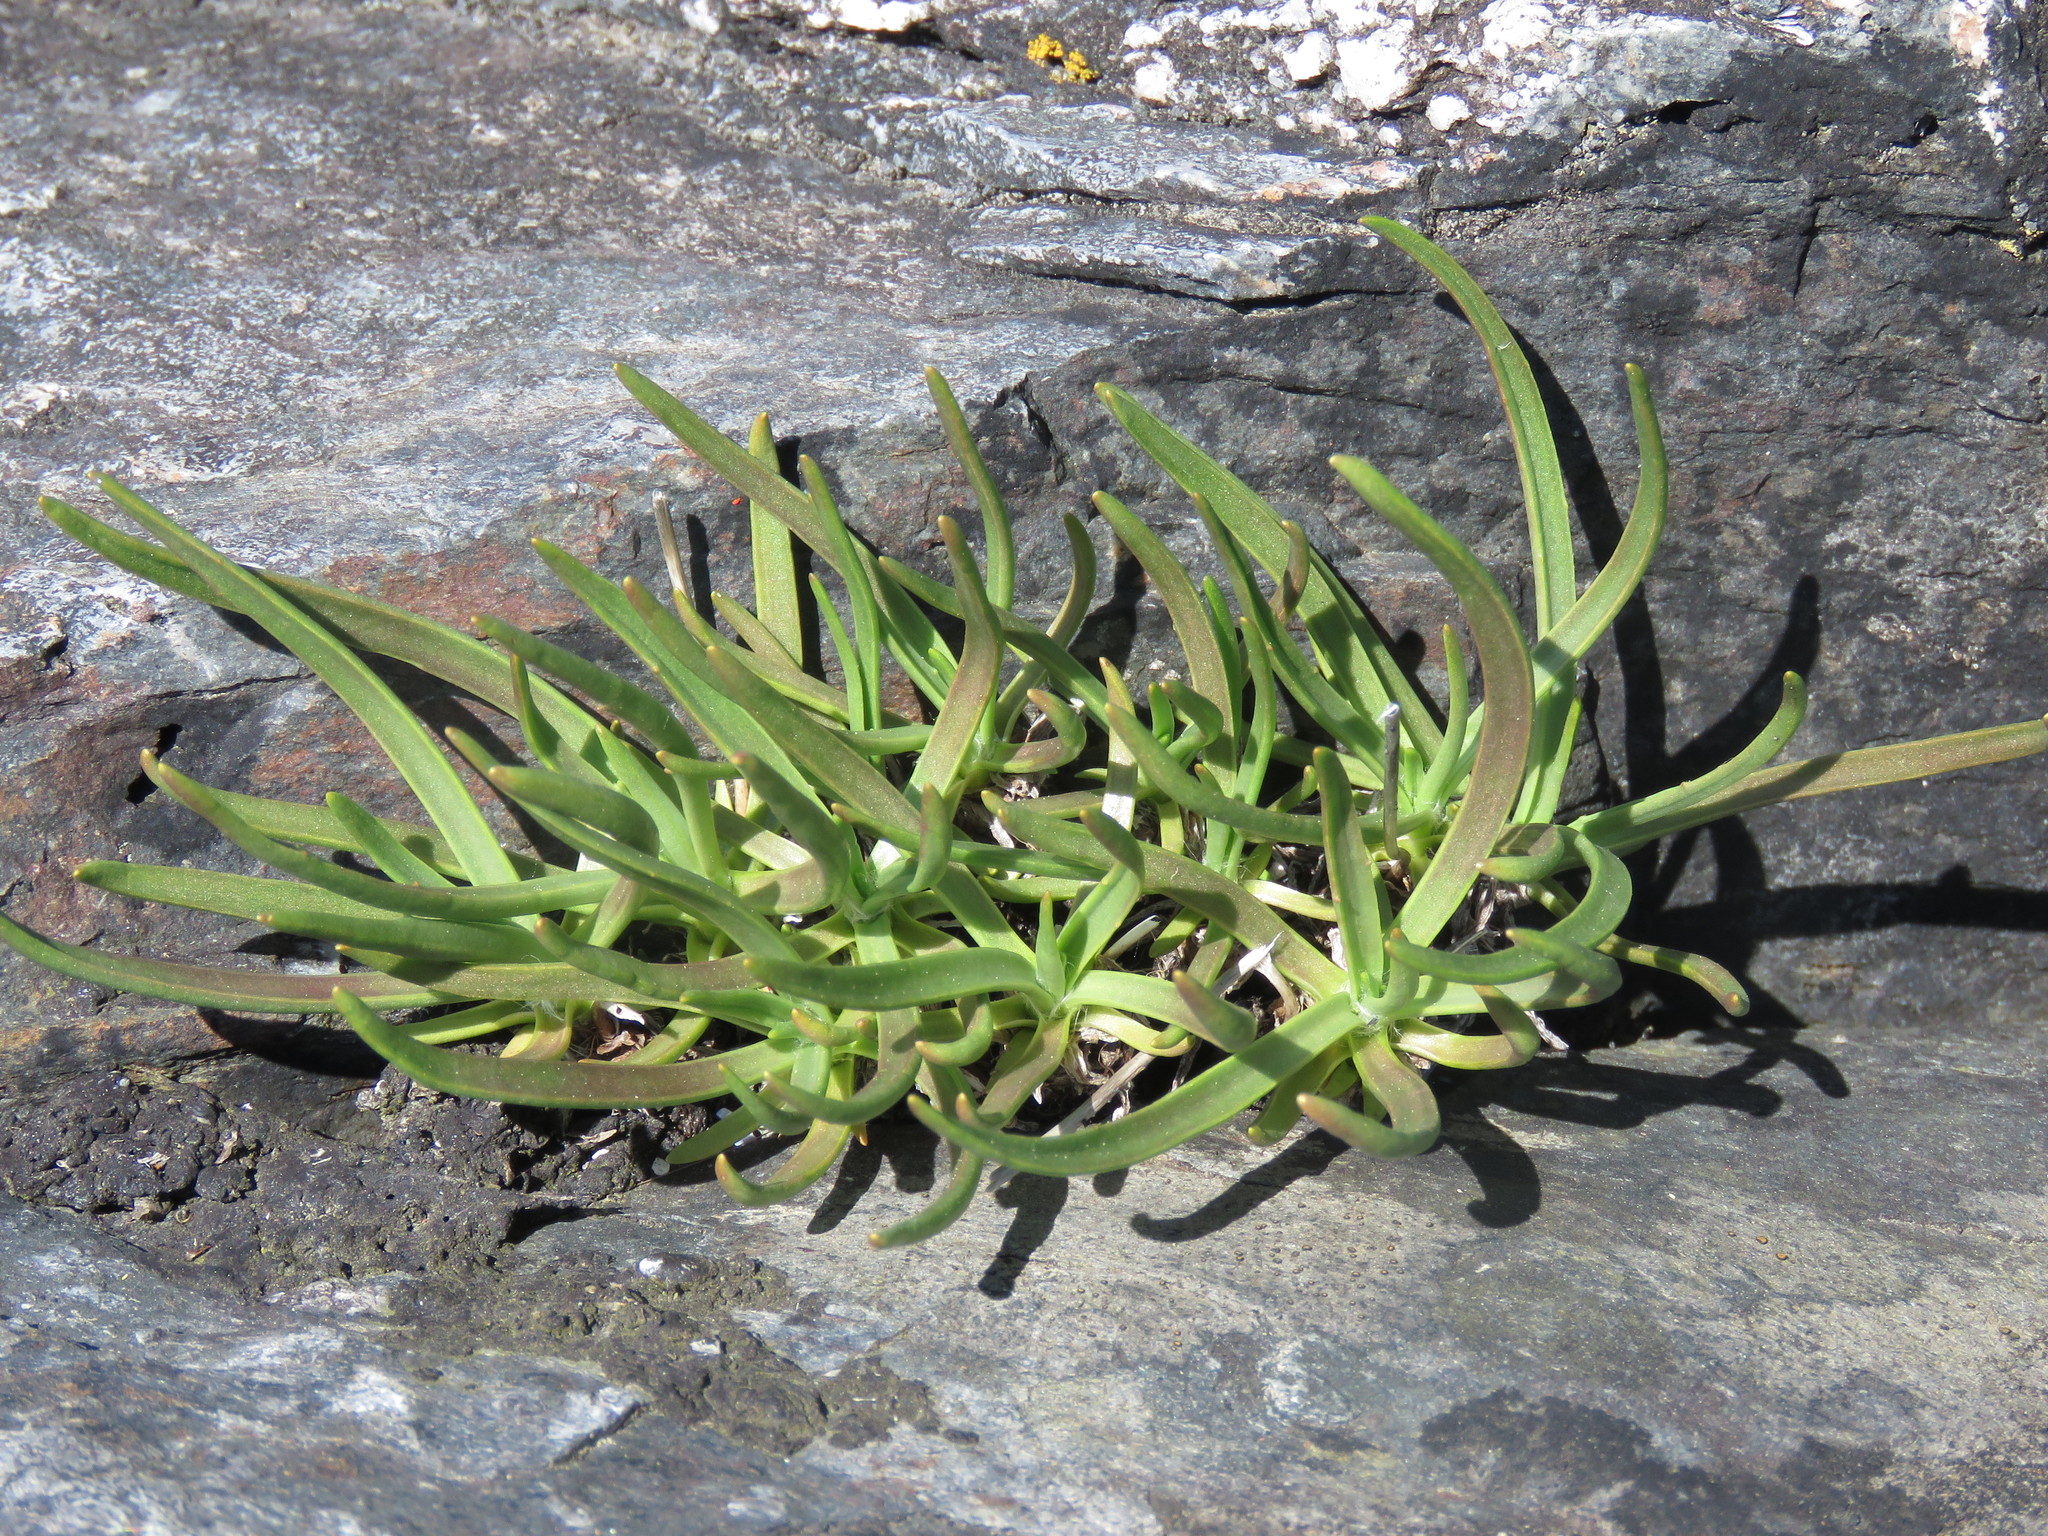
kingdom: Plantae
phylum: Tracheophyta
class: Magnoliopsida
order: Lamiales
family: Plantaginaceae
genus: Plantago
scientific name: Plantago maritima
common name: Sea plantain
